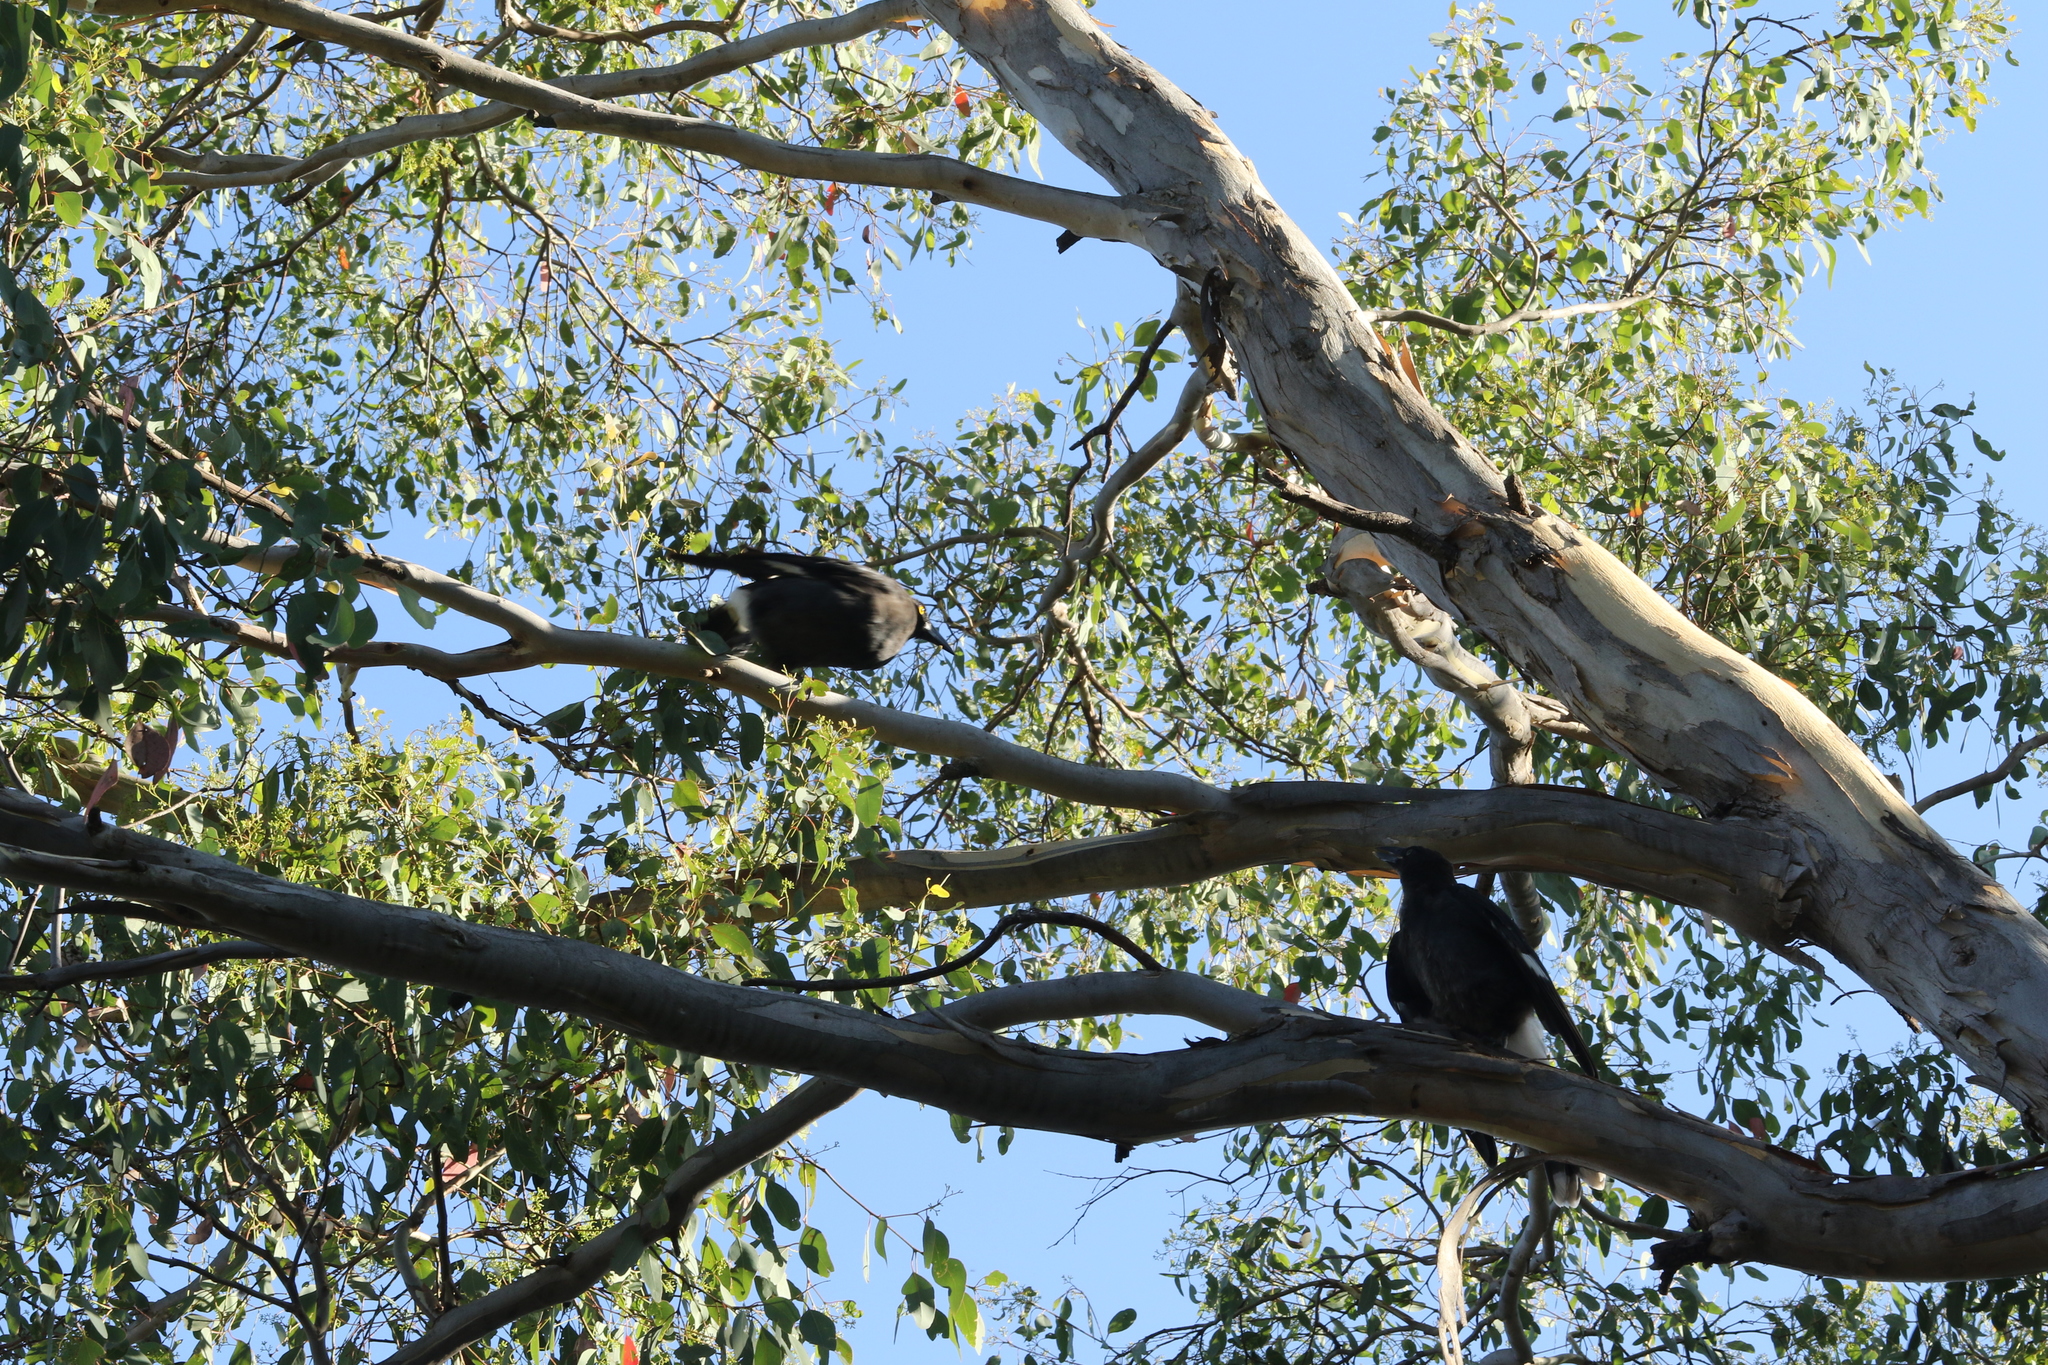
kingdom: Animalia
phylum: Chordata
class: Aves
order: Passeriformes
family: Cracticidae
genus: Strepera
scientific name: Strepera graculina
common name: Pied currawong
